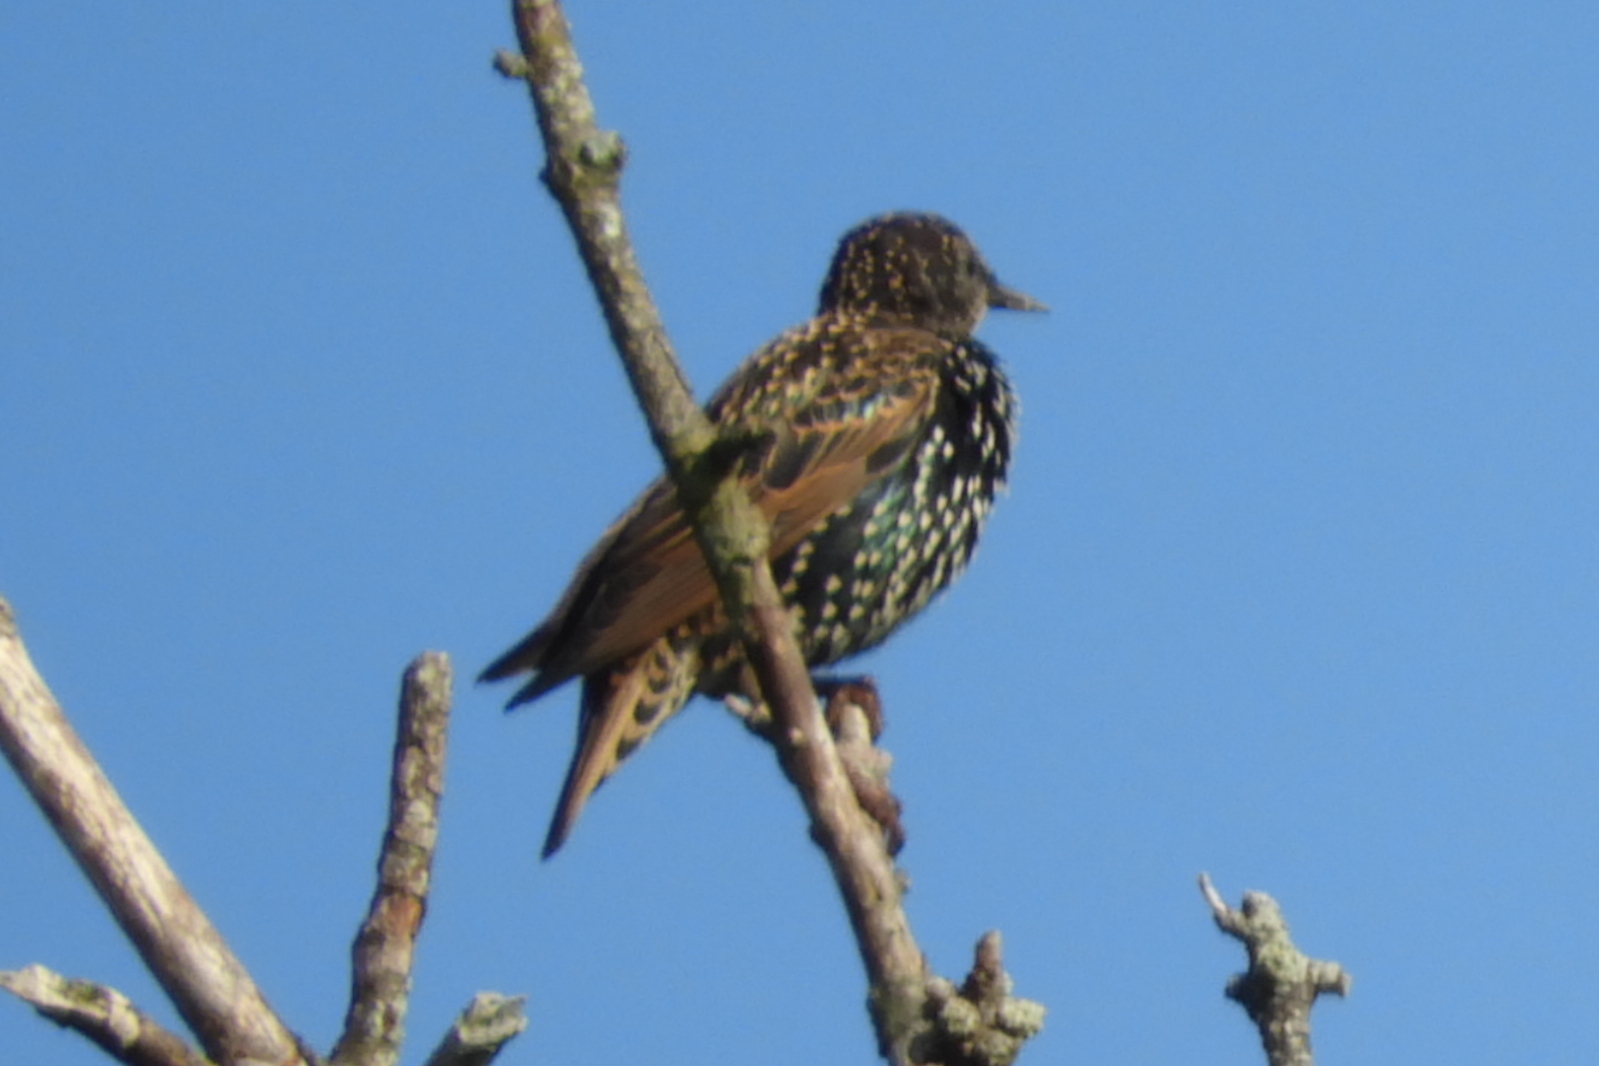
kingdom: Animalia
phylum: Chordata
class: Aves
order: Passeriformes
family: Sturnidae
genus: Sturnus
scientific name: Sturnus vulgaris
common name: Common starling
